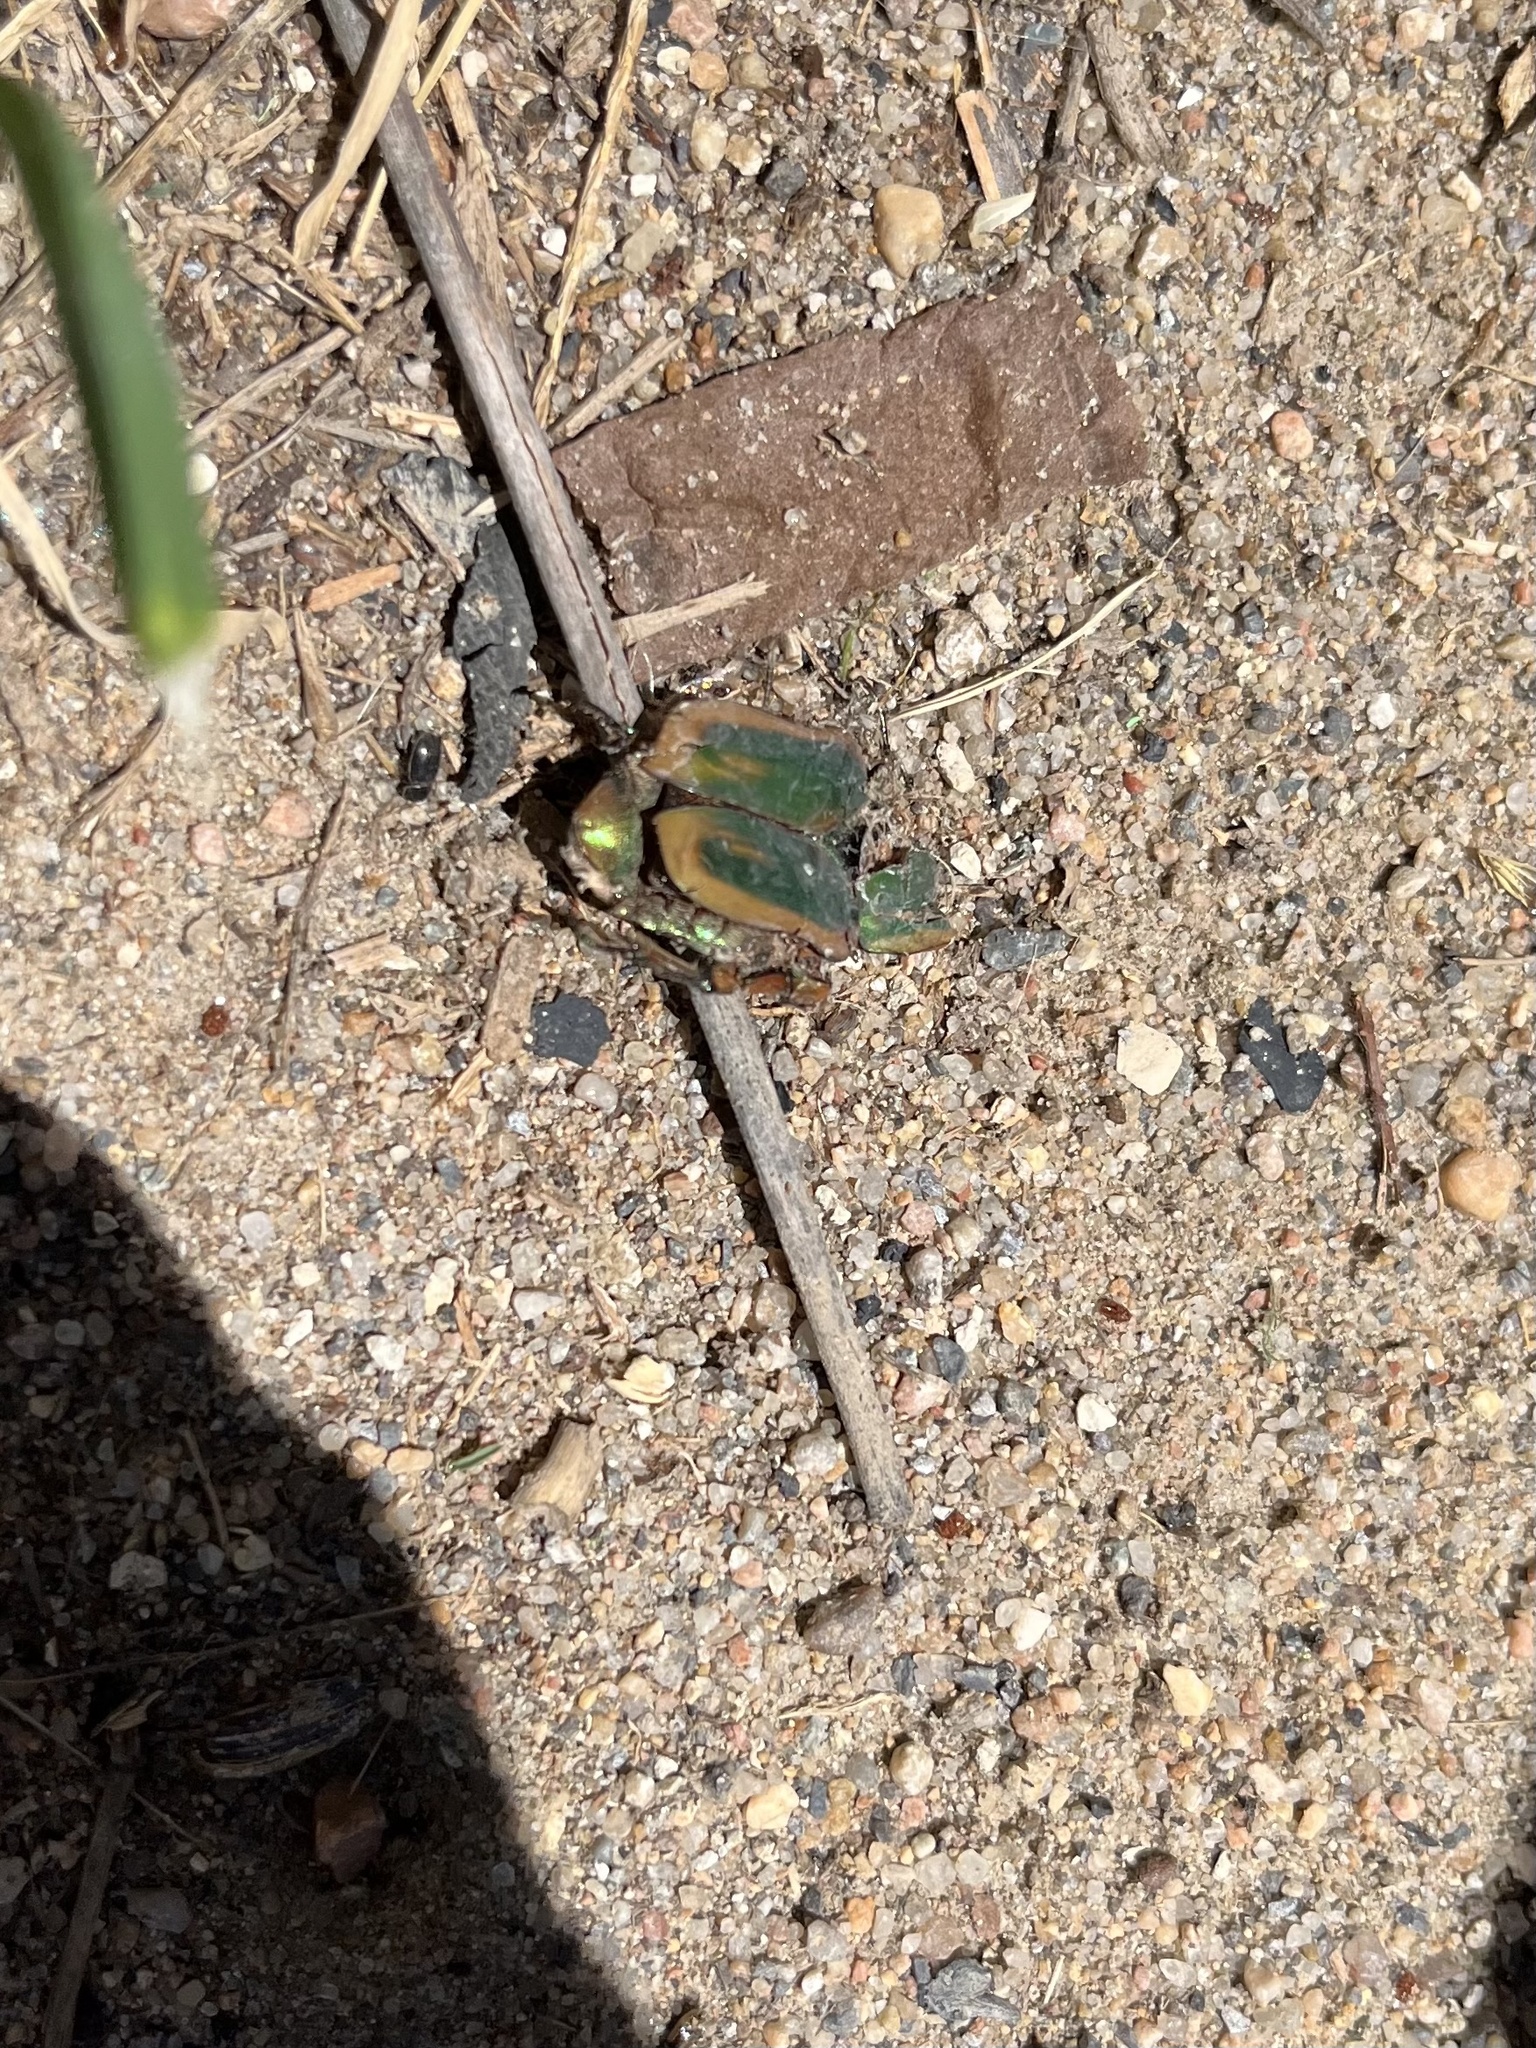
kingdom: Animalia
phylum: Arthropoda
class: Insecta
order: Coleoptera
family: Scarabaeidae
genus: Cotinis
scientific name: Cotinis nitida
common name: Common green june beetle
